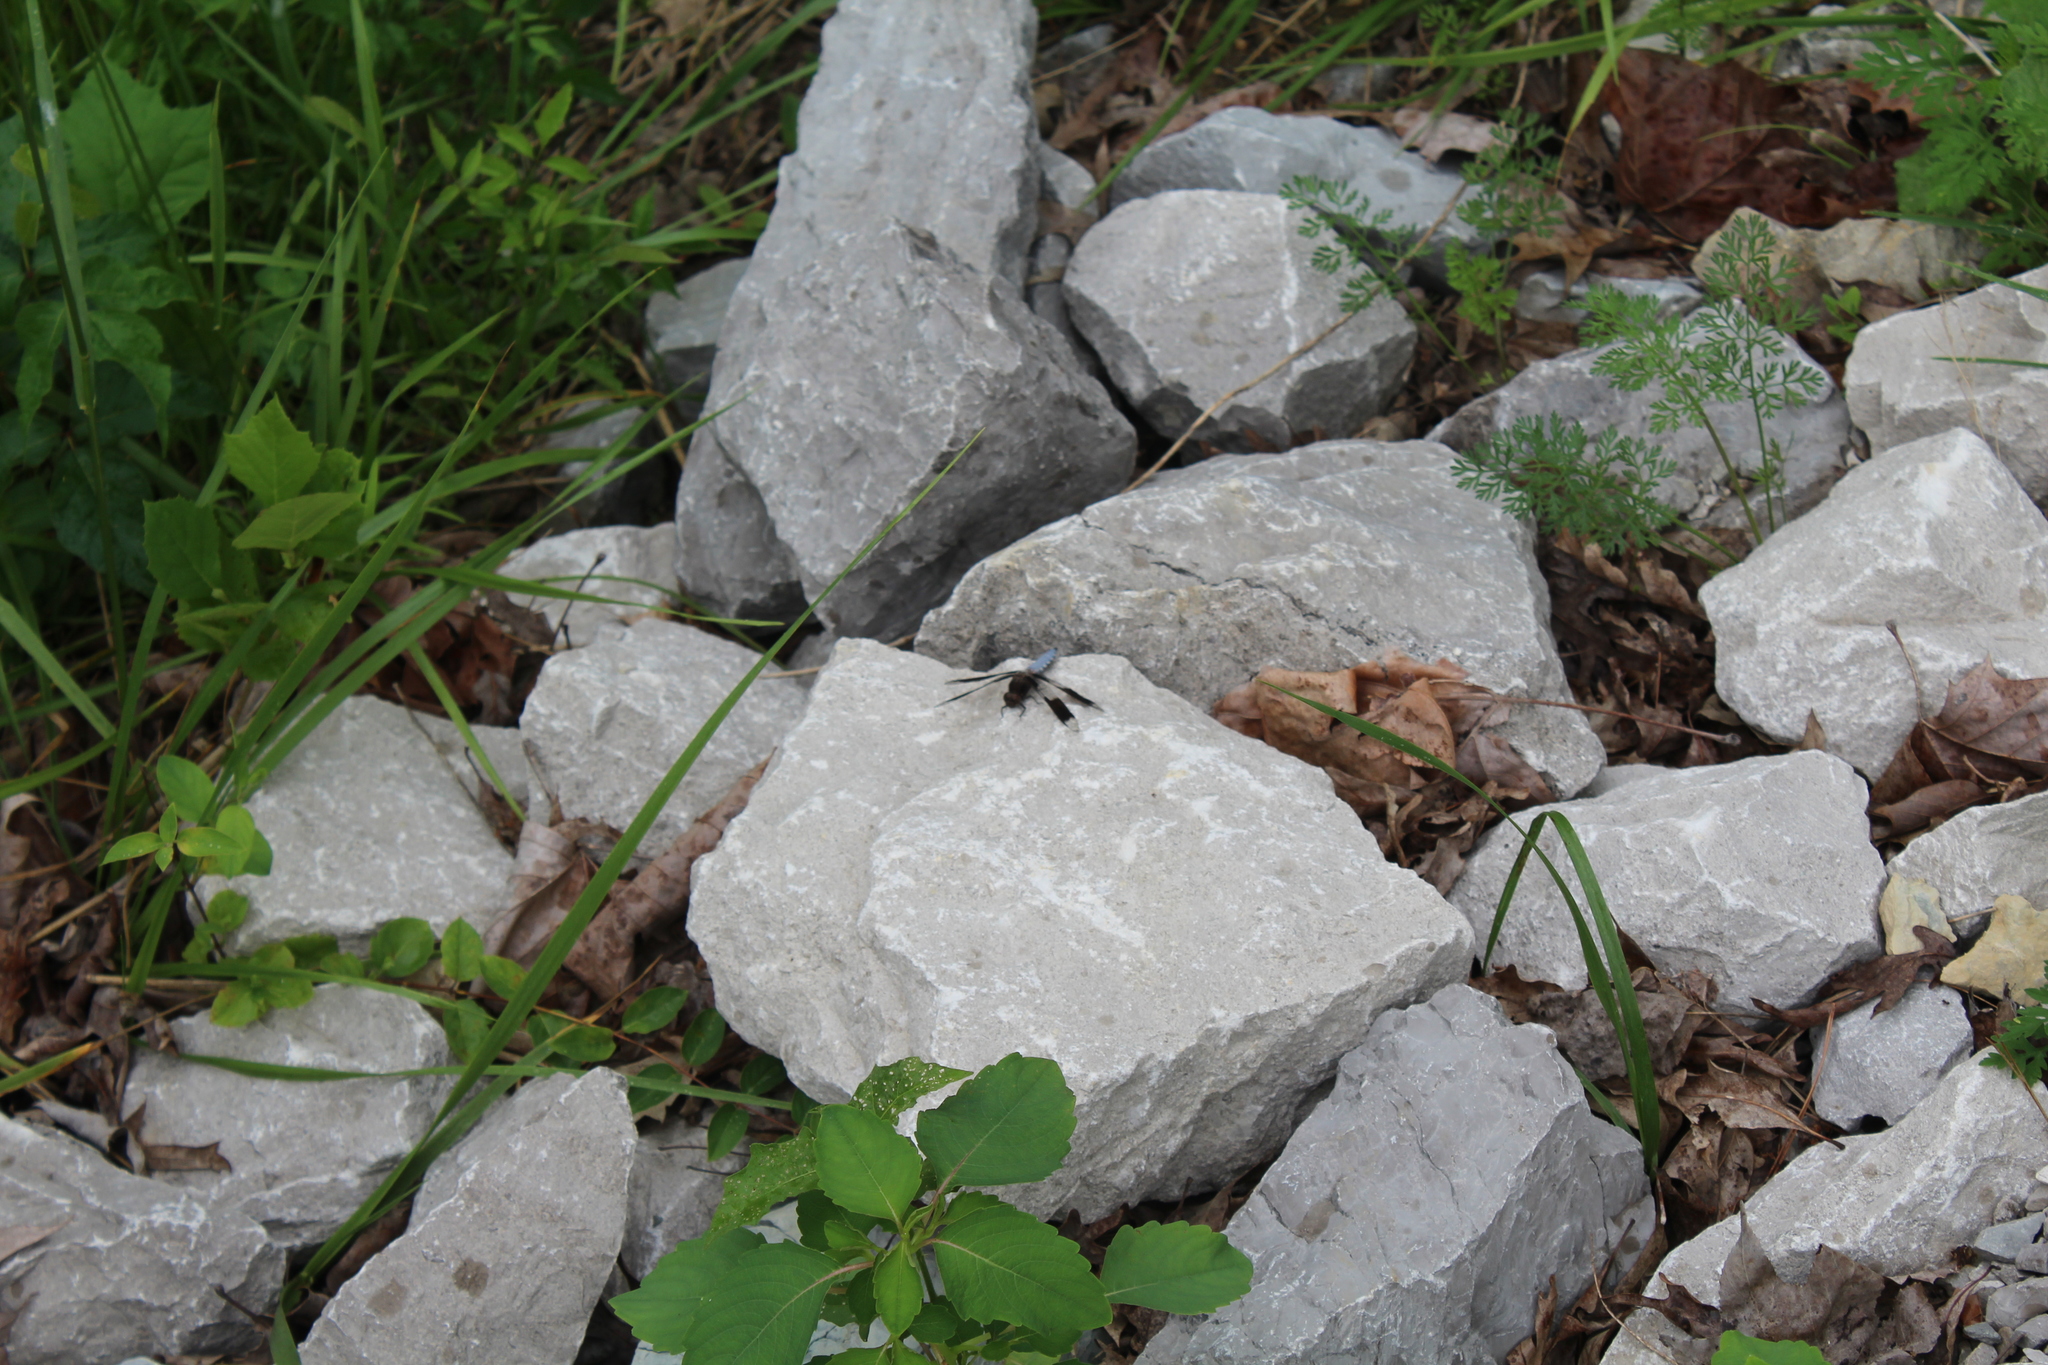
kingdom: Animalia
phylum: Arthropoda
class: Insecta
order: Odonata
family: Libellulidae
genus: Plathemis
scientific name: Plathemis lydia
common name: Common whitetail
